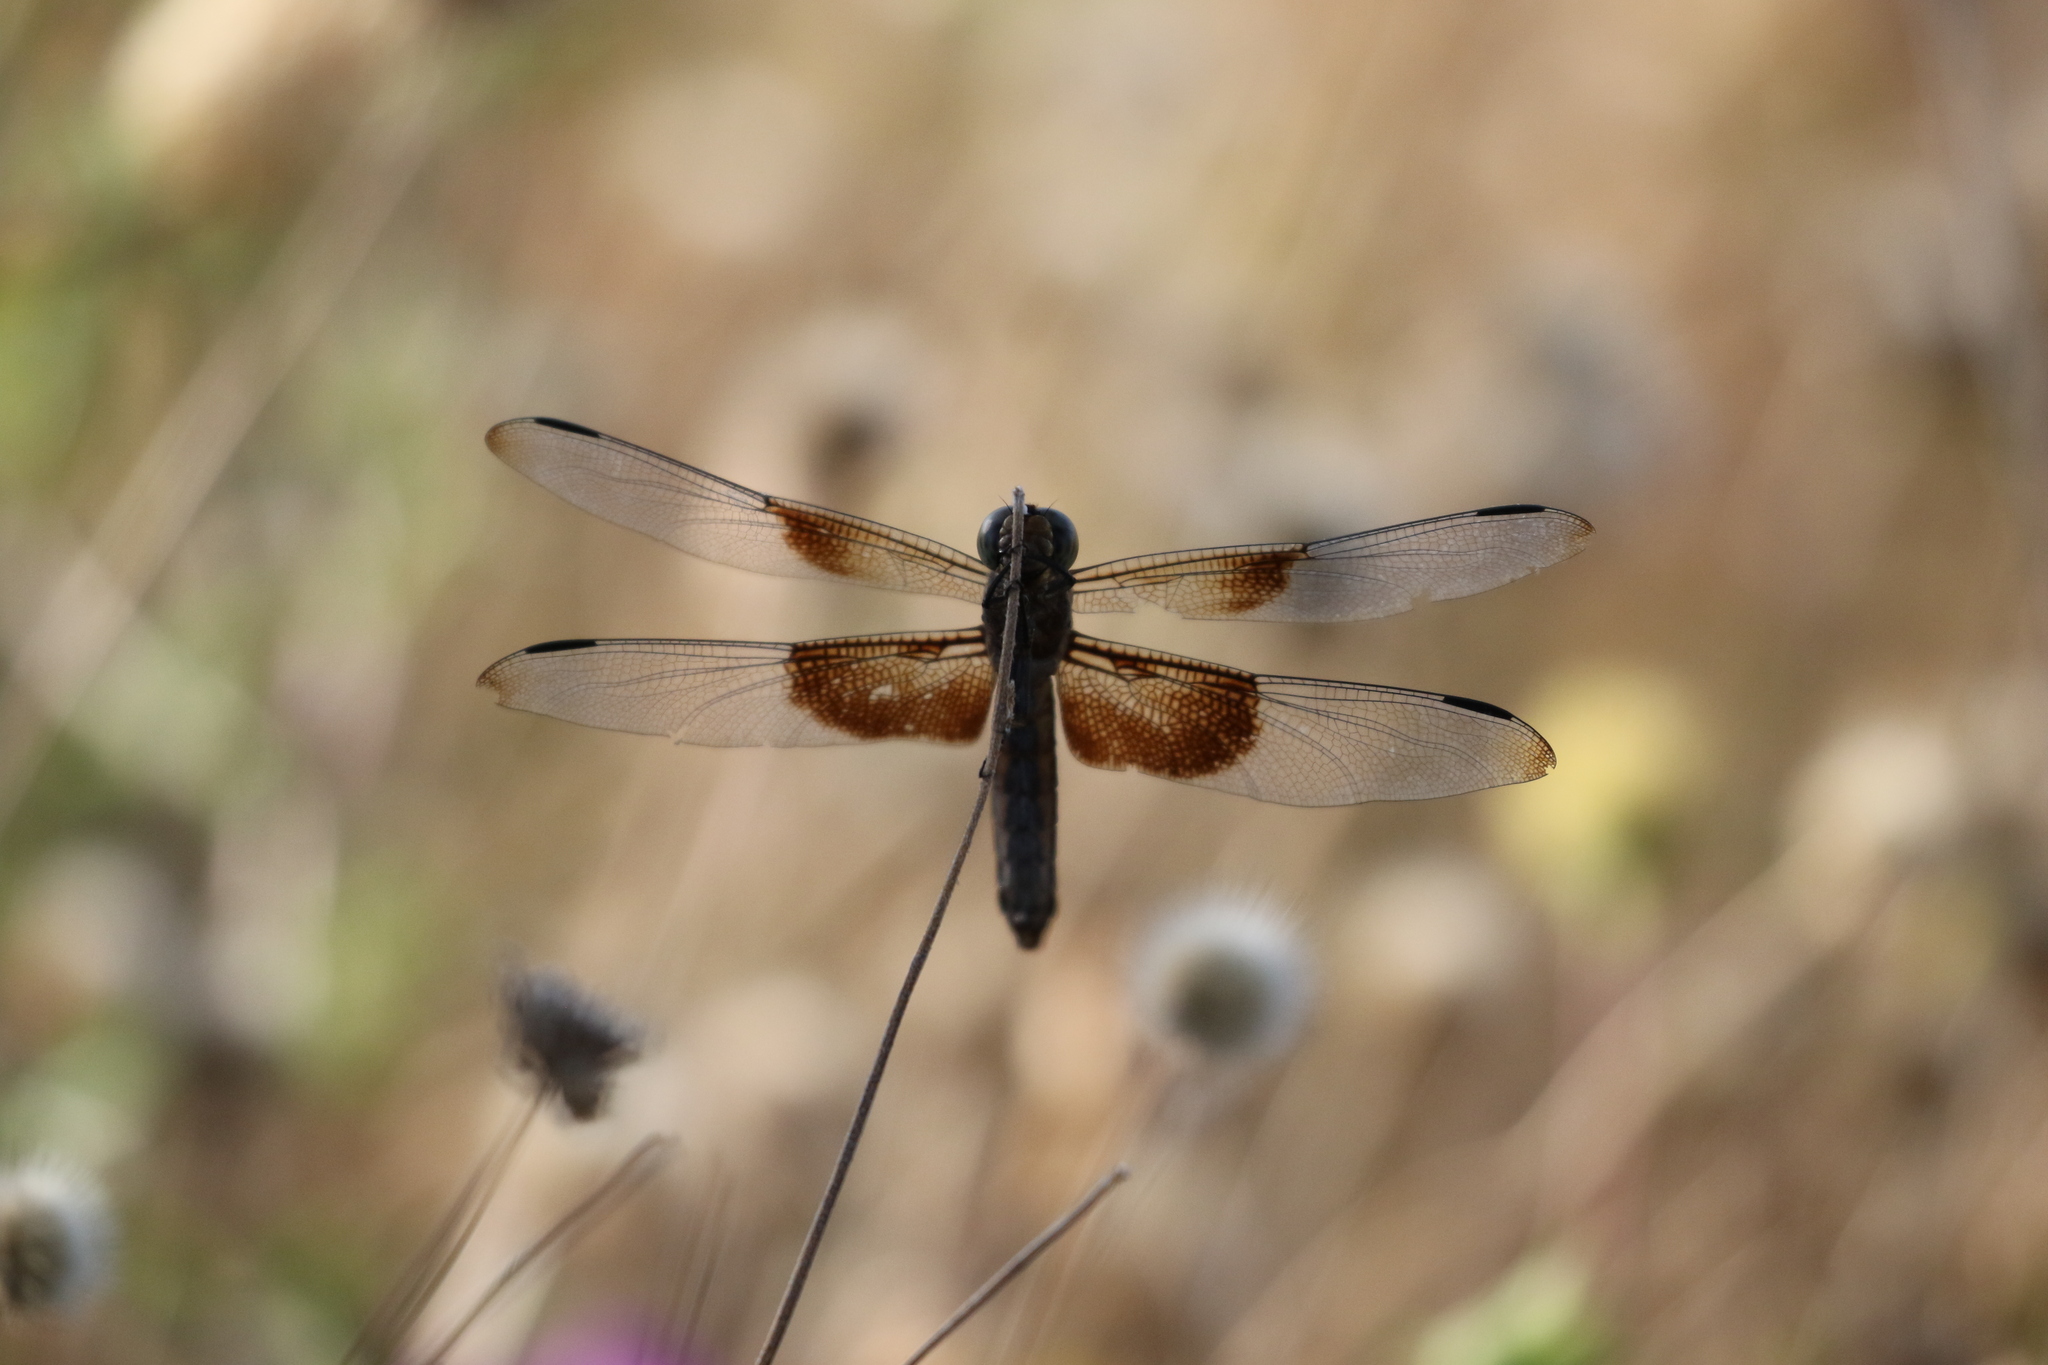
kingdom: Animalia
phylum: Arthropoda
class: Insecta
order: Odonata
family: Libellulidae
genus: Libellula
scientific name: Libellula luctuosa
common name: Widow skimmer
